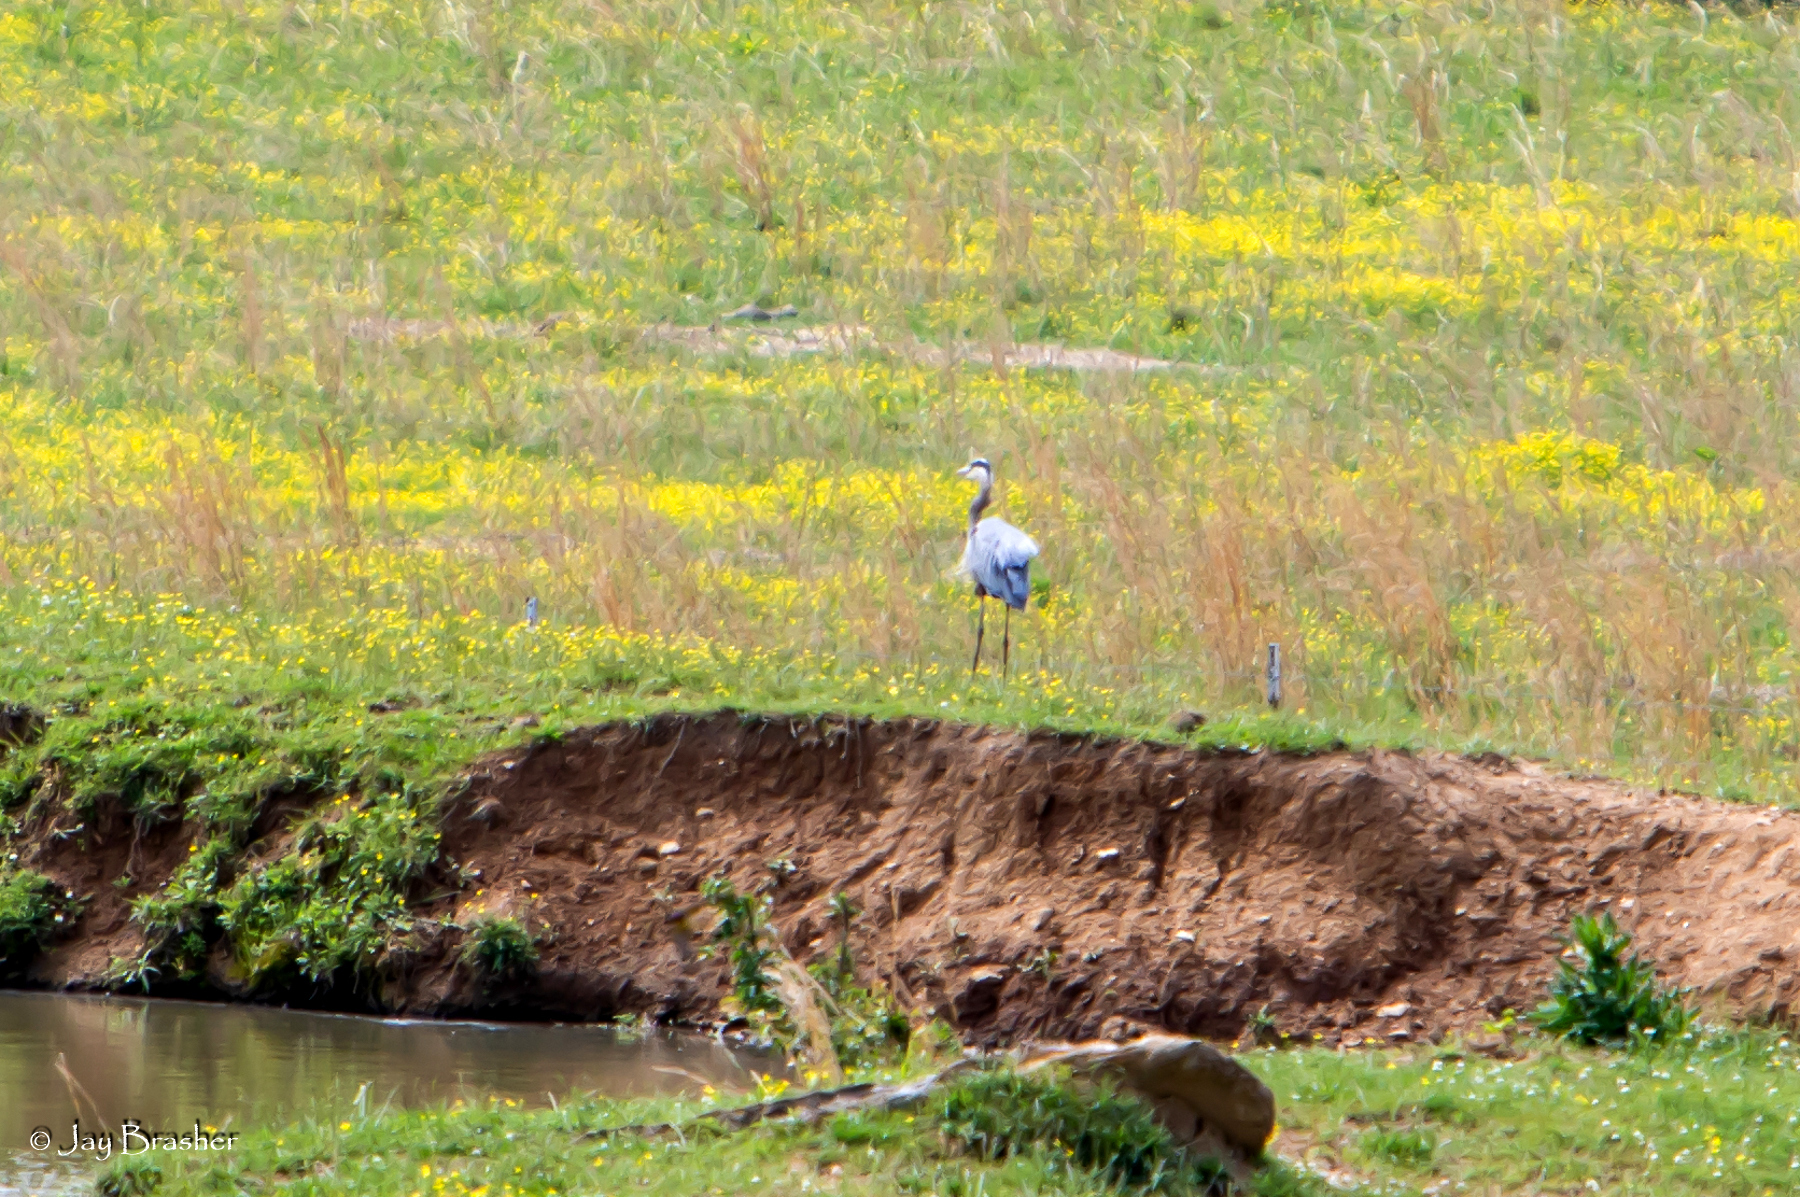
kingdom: Animalia
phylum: Chordata
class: Aves
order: Pelecaniformes
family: Ardeidae
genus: Ardea
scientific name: Ardea herodias
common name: Great blue heron
